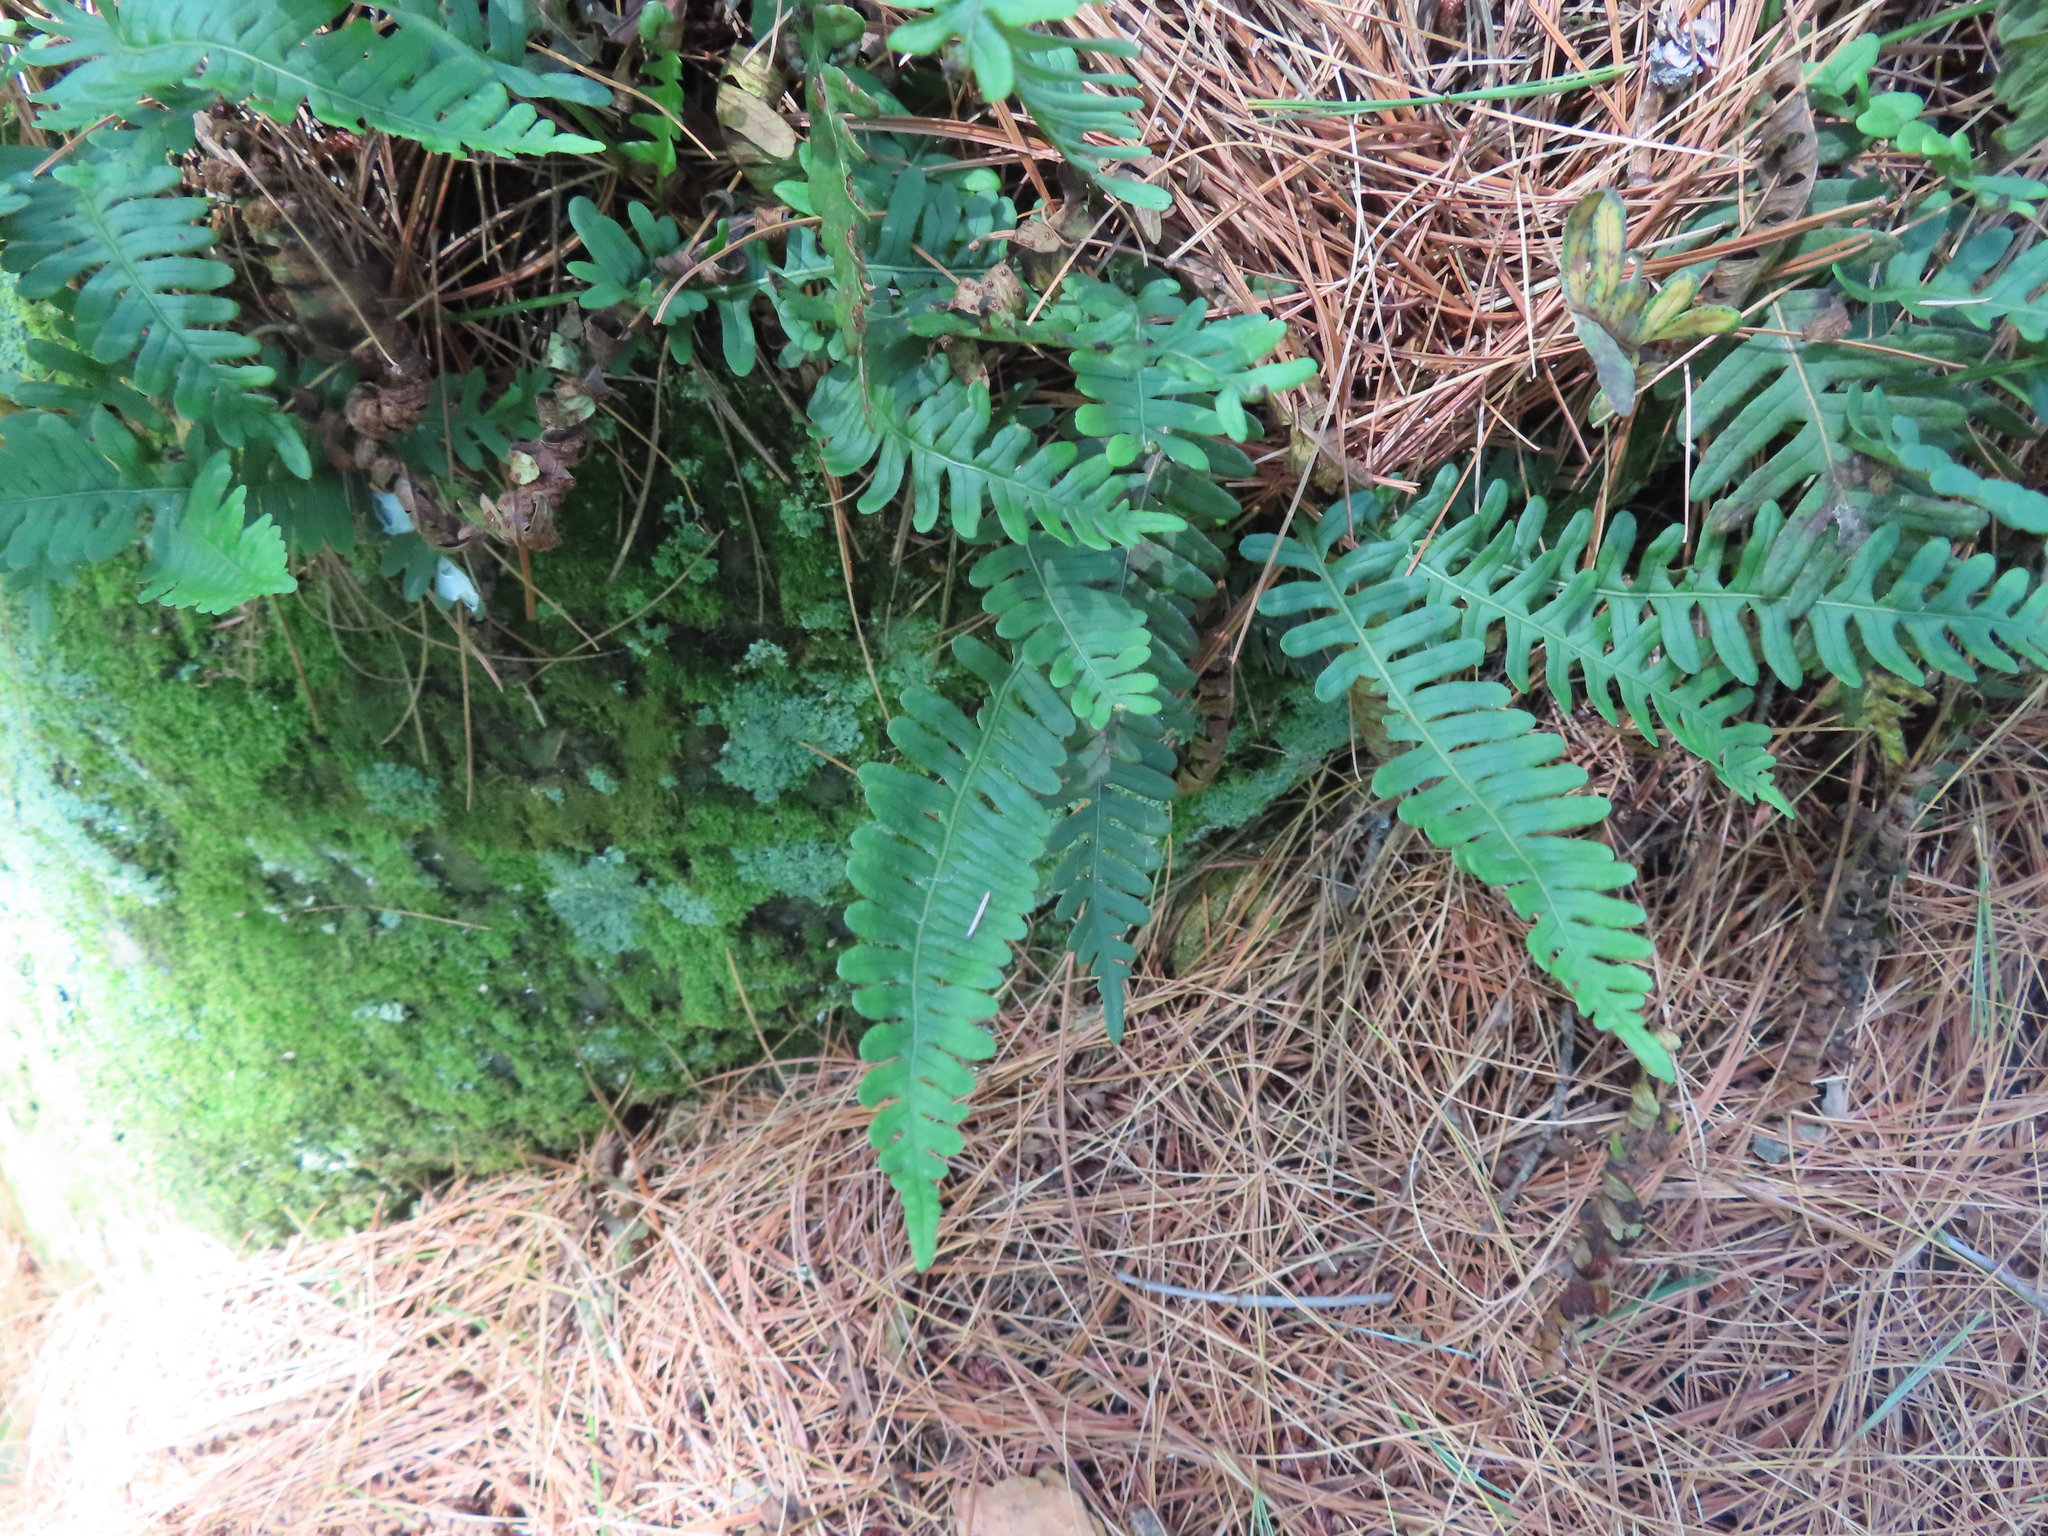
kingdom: Plantae
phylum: Tracheophyta
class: Polypodiopsida
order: Polypodiales
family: Polypodiaceae
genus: Polypodium
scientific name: Polypodium virginianum
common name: American wall fern
